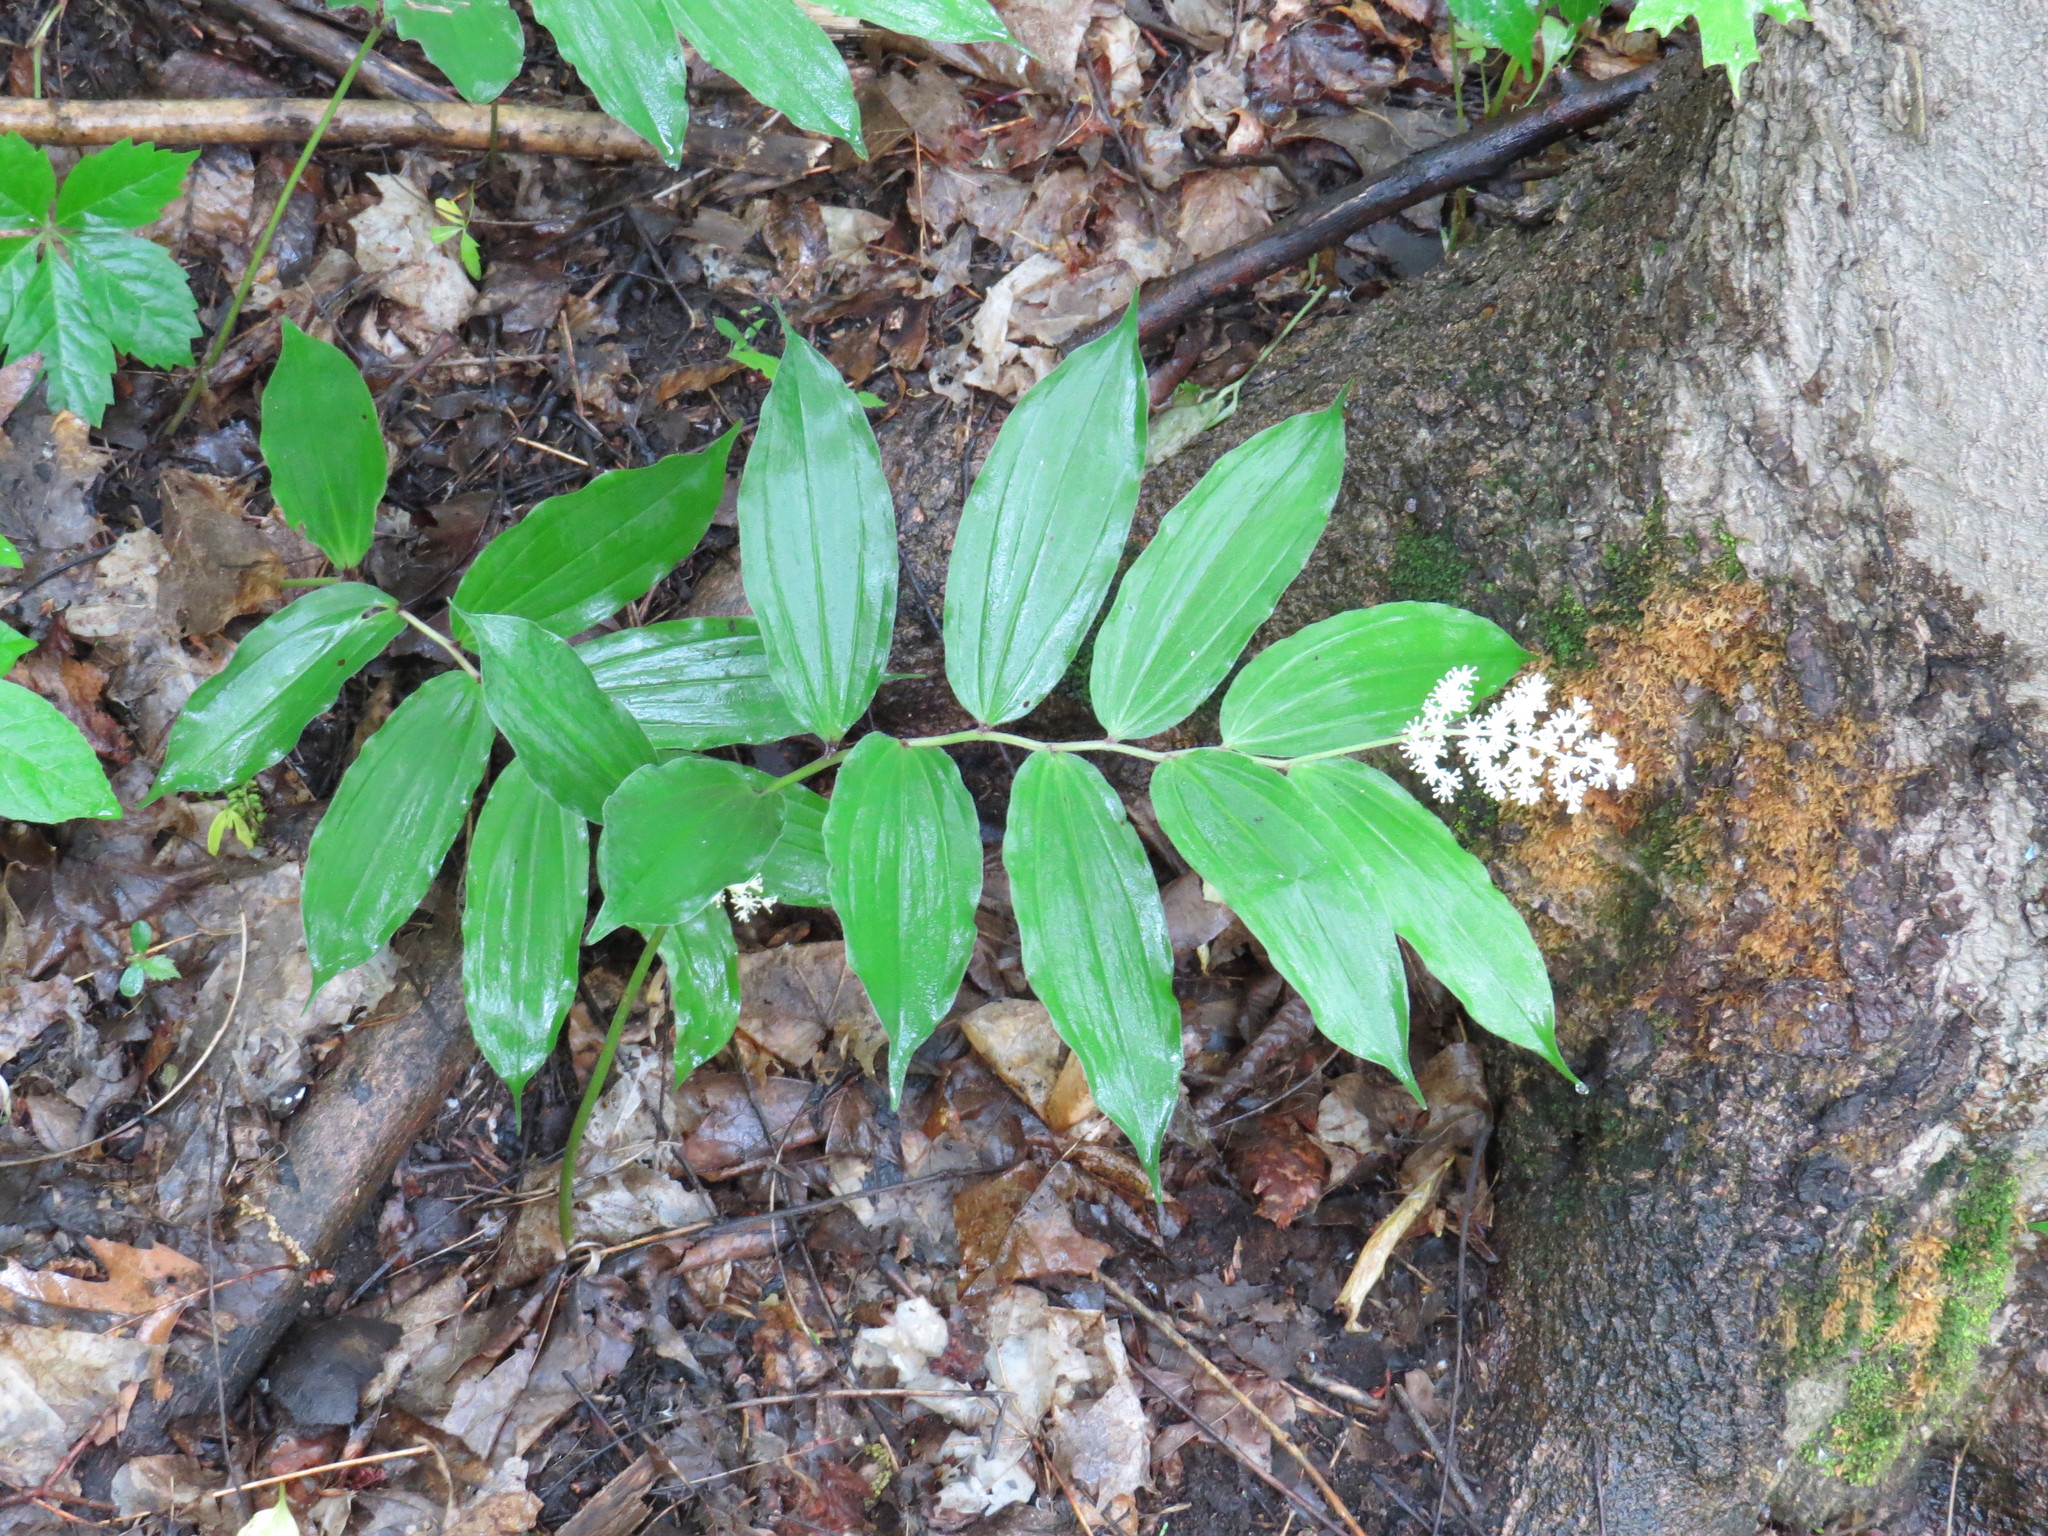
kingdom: Plantae
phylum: Tracheophyta
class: Liliopsida
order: Asparagales
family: Asparagaceae
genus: Maianthemum
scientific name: Maianthemum racemosum
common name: False spikenard
